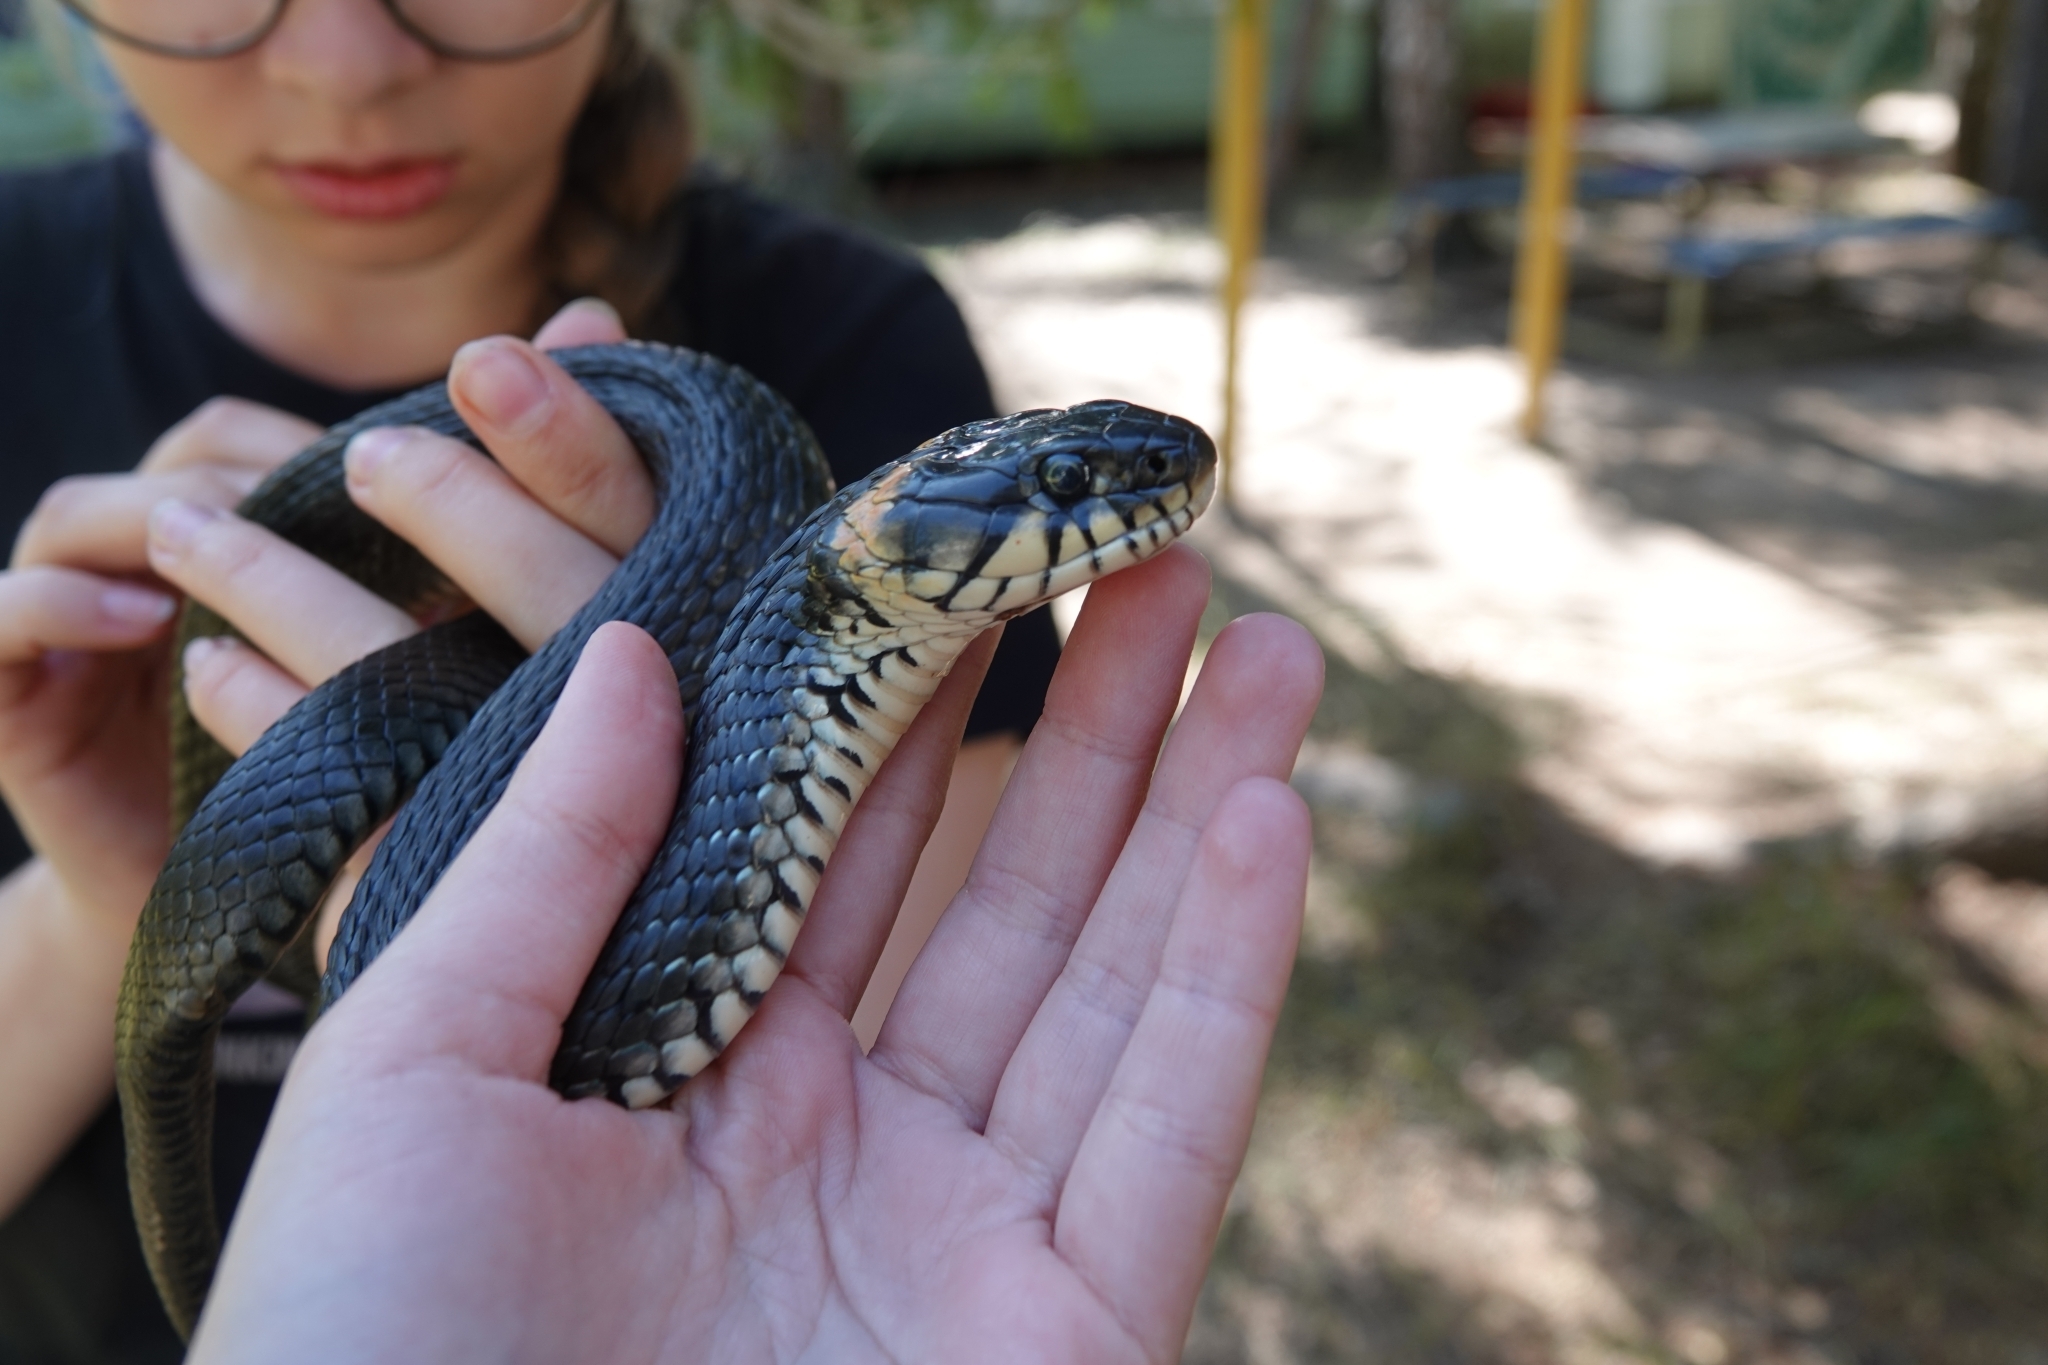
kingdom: Animalia
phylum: Chordata
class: Squamata
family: Colubridae
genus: Natrix
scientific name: Natrix natrix
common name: Grass snake
